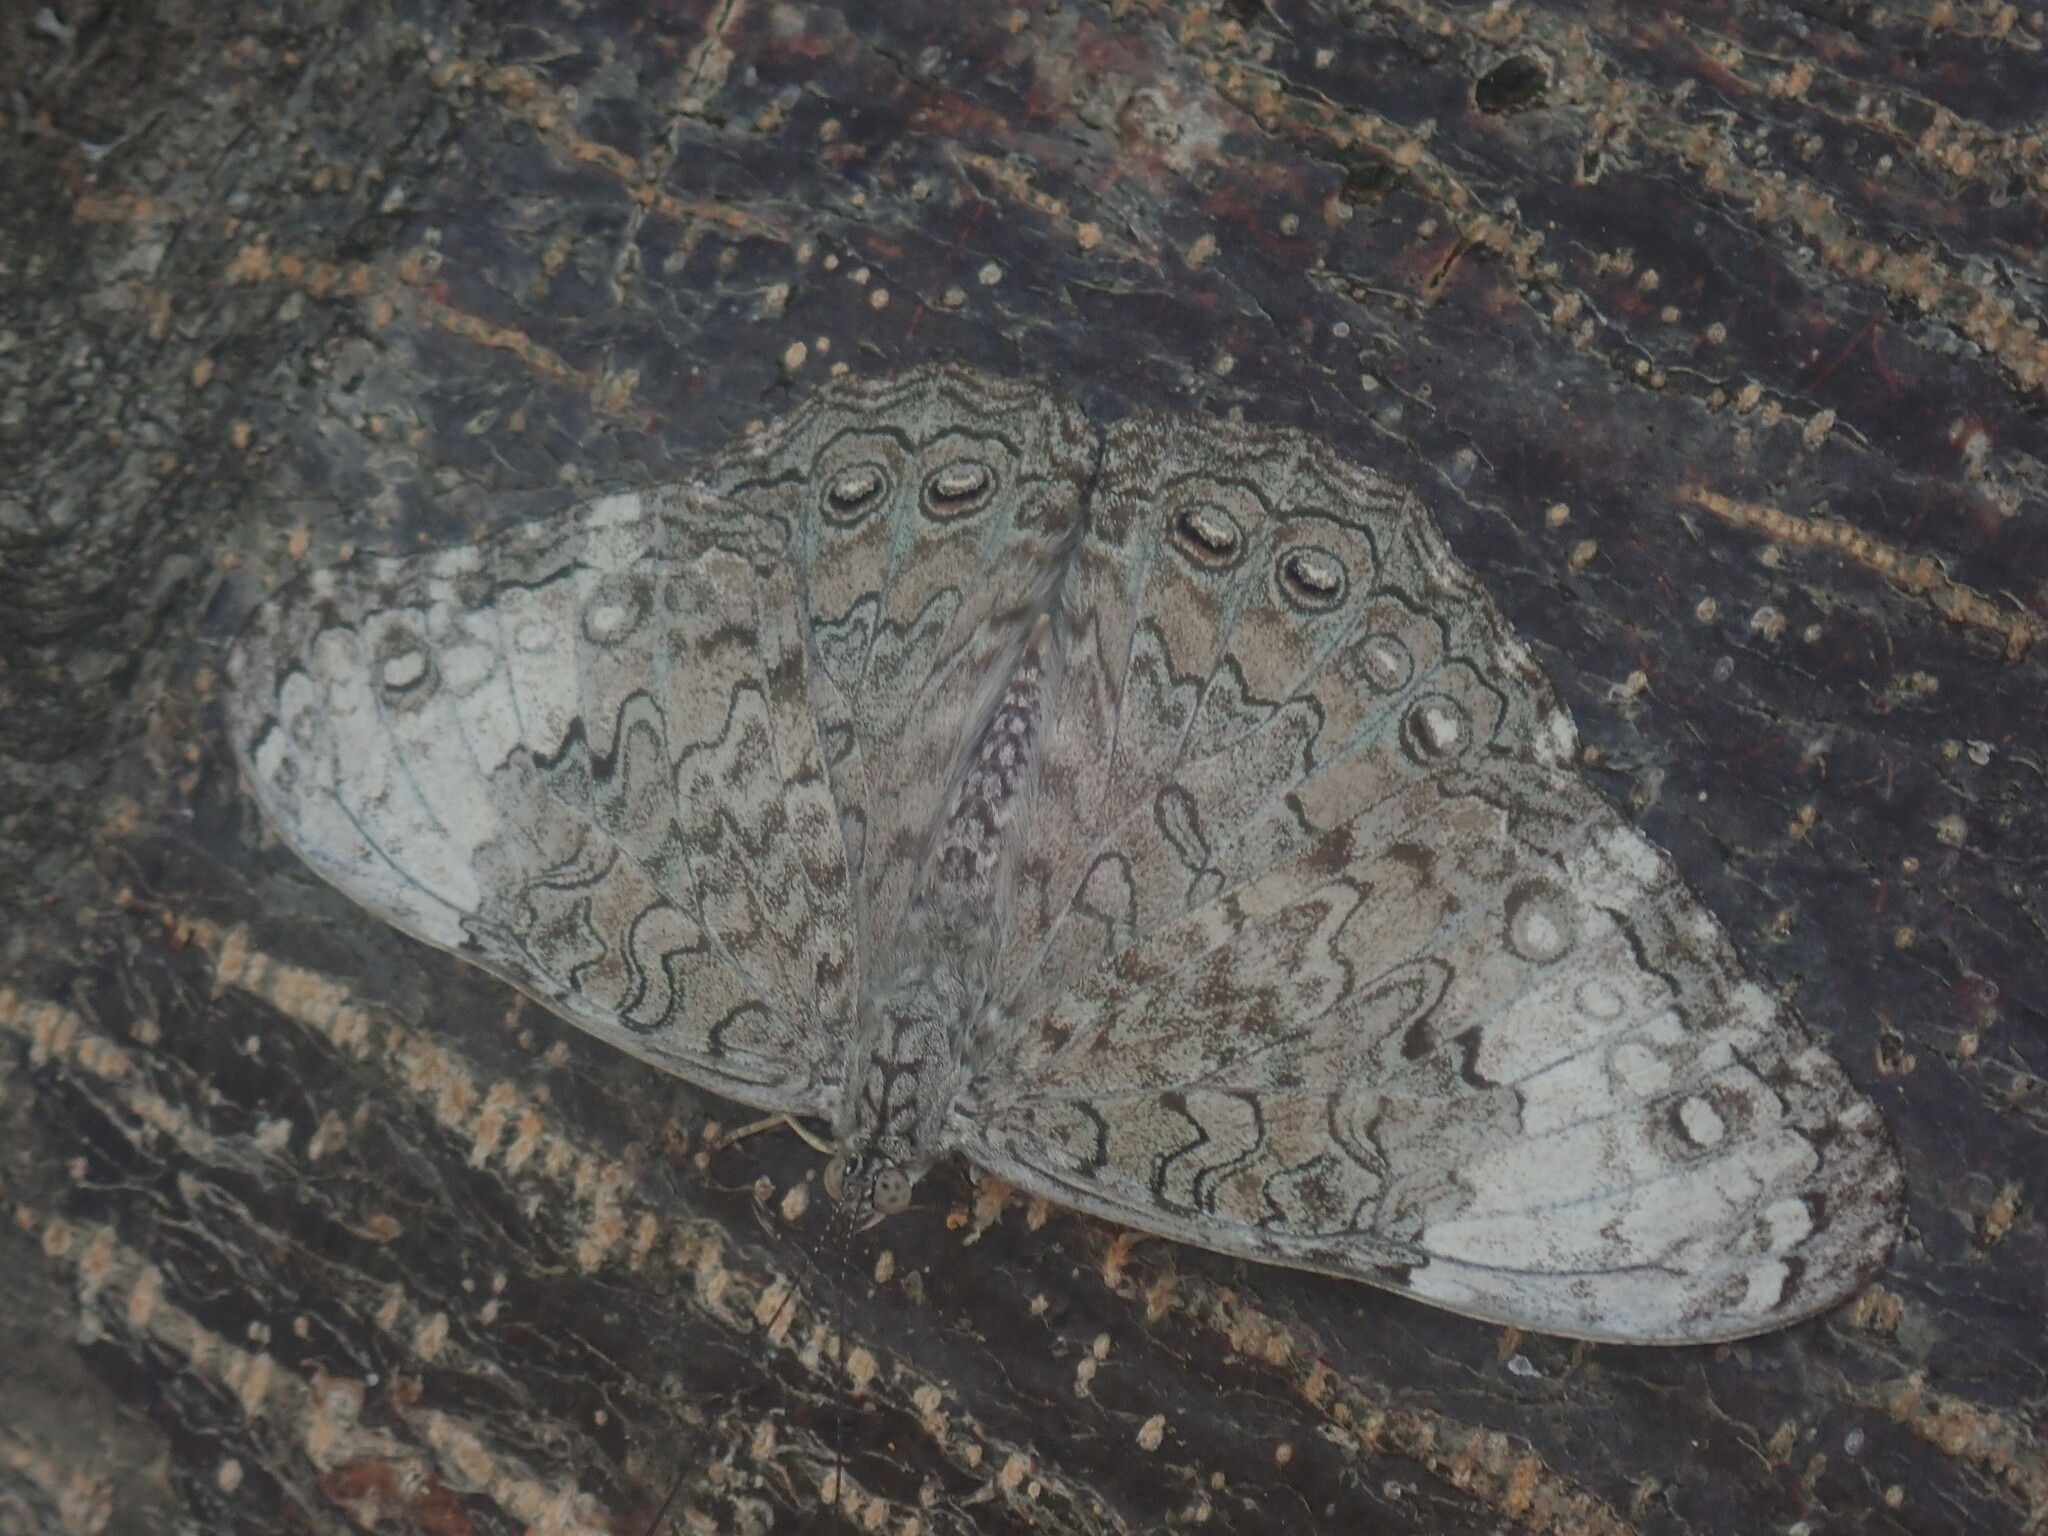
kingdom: Animalia
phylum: Arthropoda
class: Insecta
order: Lepidoptera
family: Nymphalidae
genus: Hamadryas
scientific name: Hamadryas glauconome
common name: Glaucous cracker
